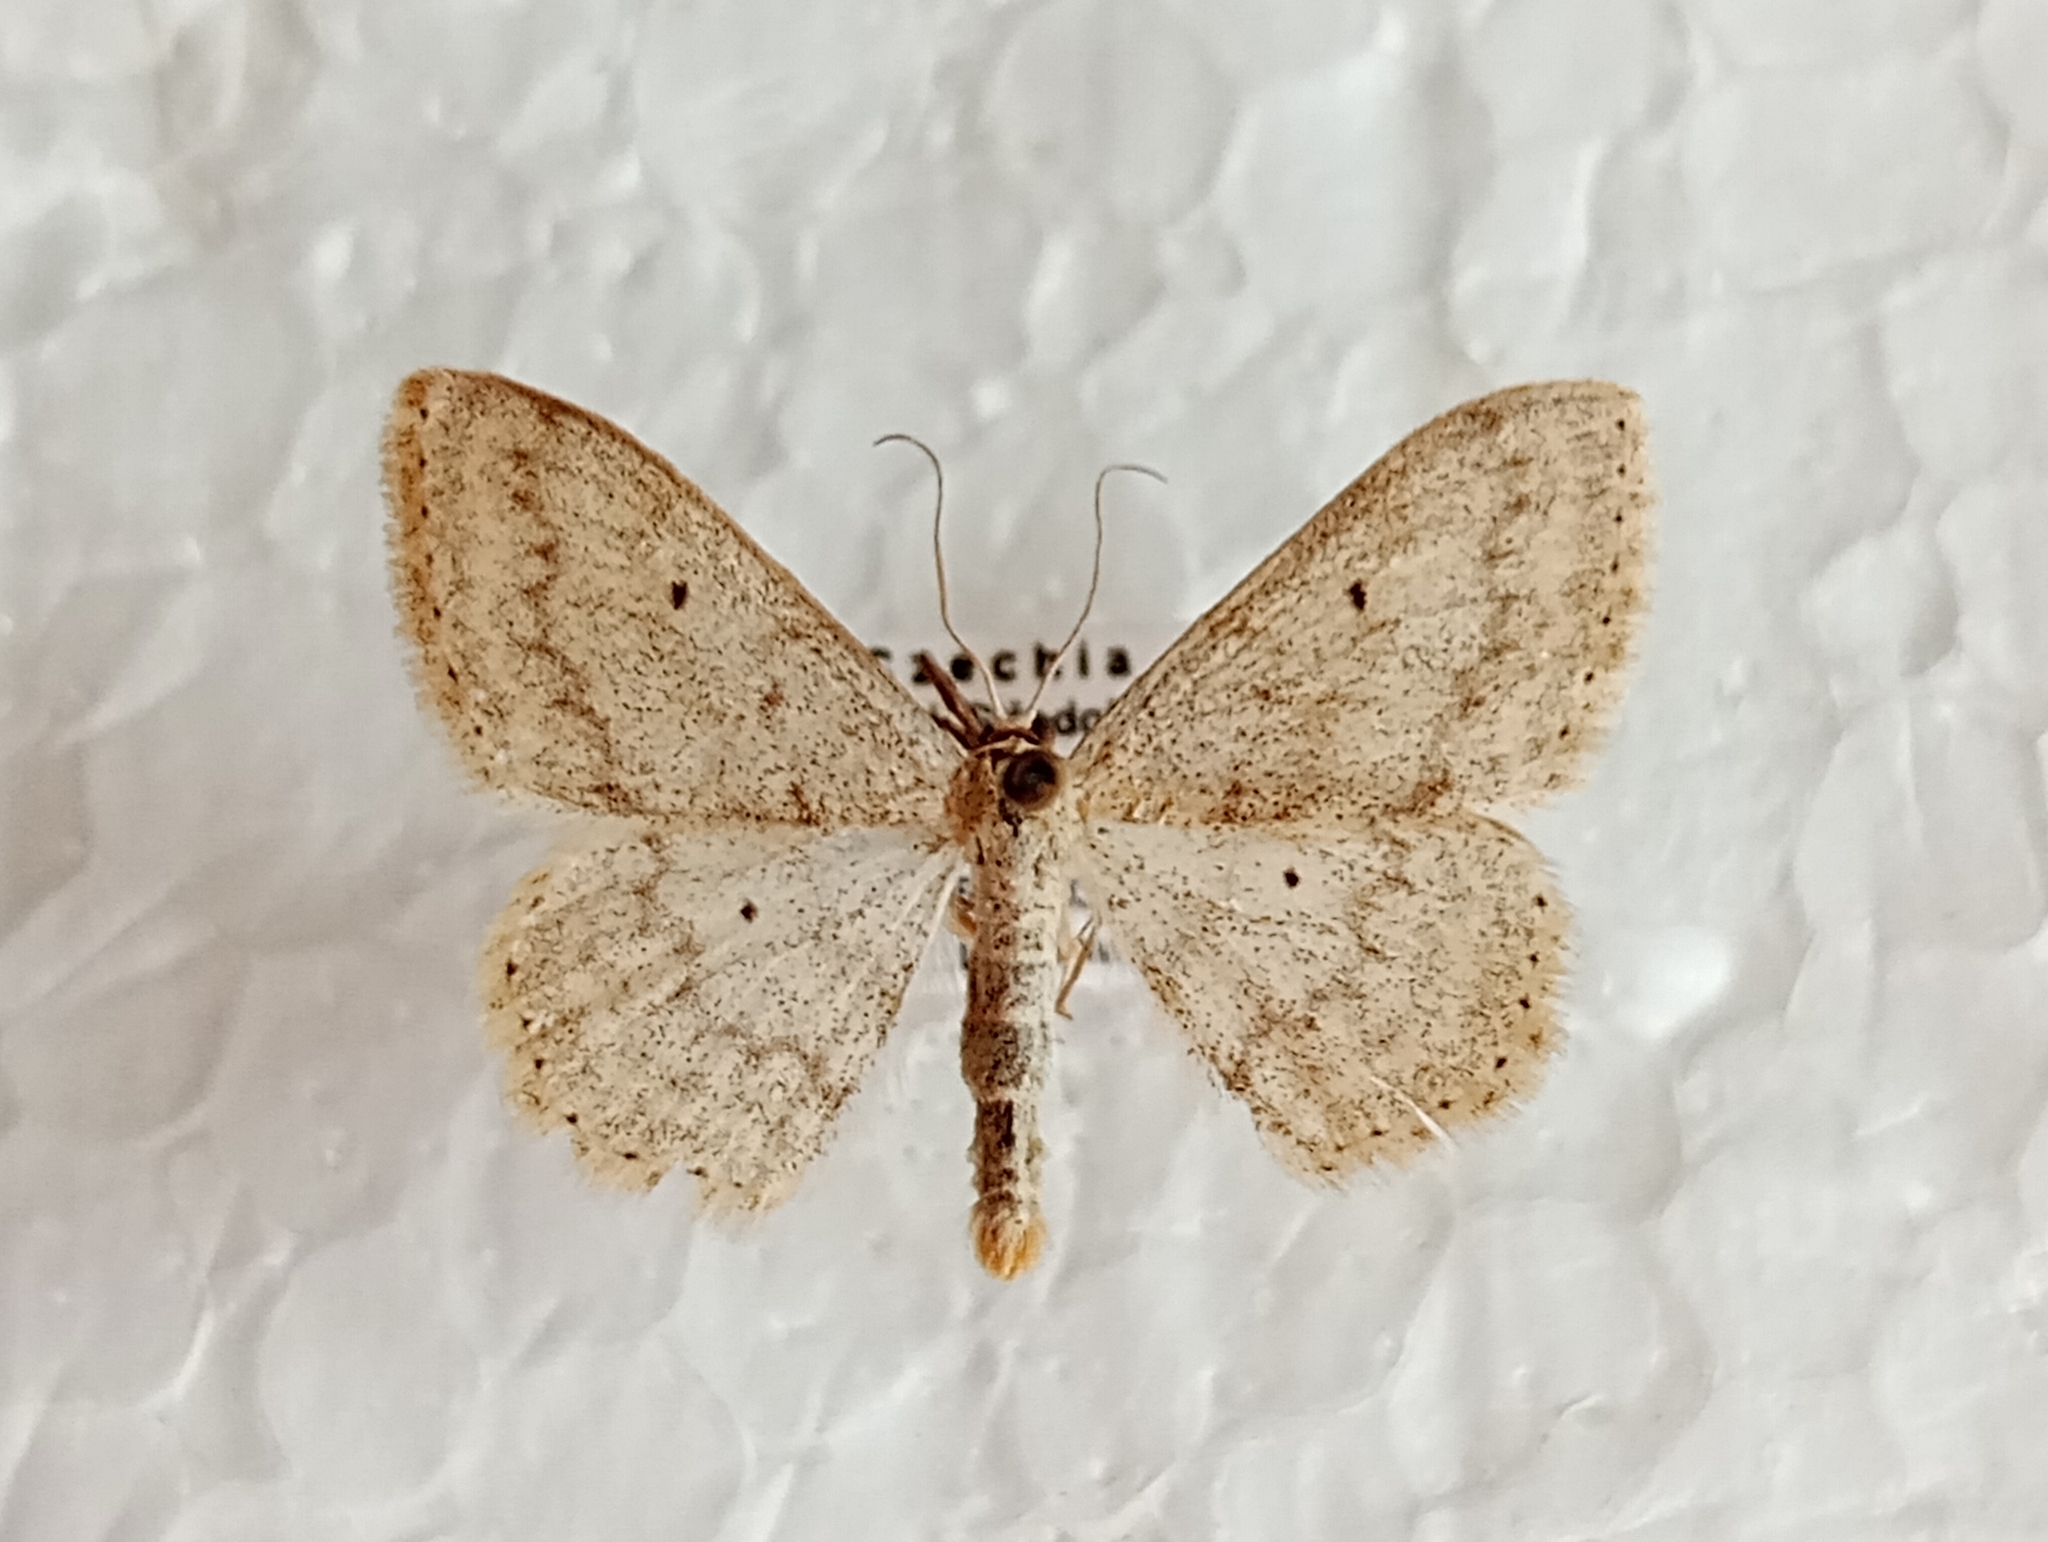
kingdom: Animalia
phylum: Arthropoda
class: Insecta
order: Lepidoptera
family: Geometridae
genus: Scopula
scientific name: Scopula incanata
